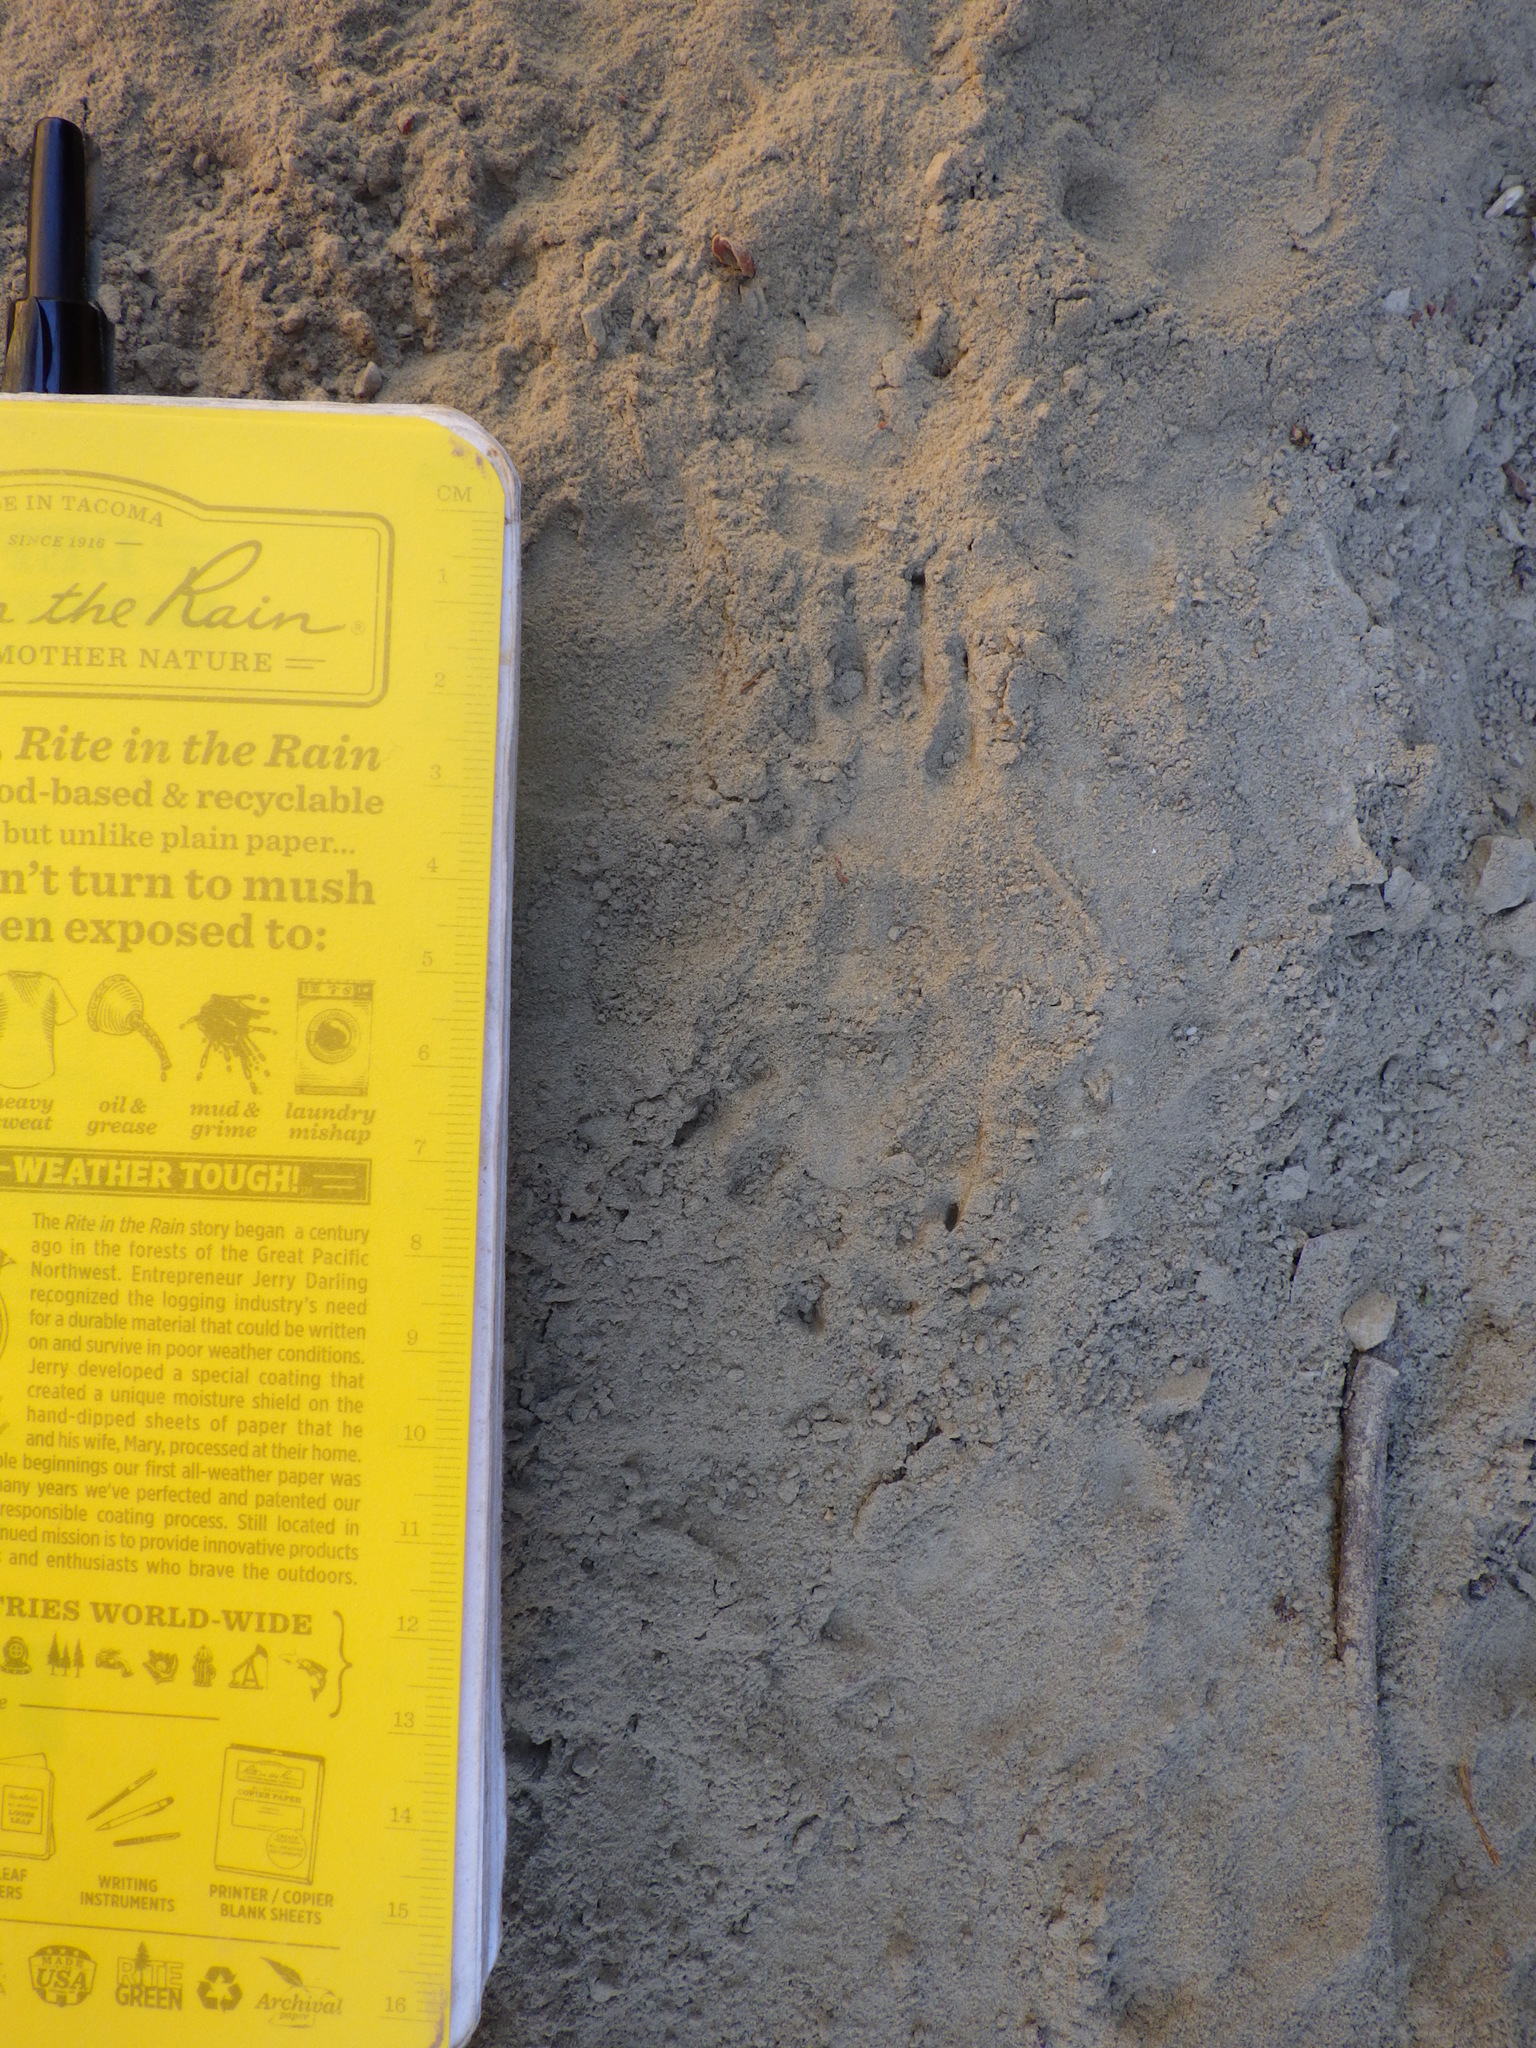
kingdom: Animalia
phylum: Chordata
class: Mammalia
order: Carnivora
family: Mephitidae
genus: Mephitis
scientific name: Mephitis mephitis
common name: Striped skunk
